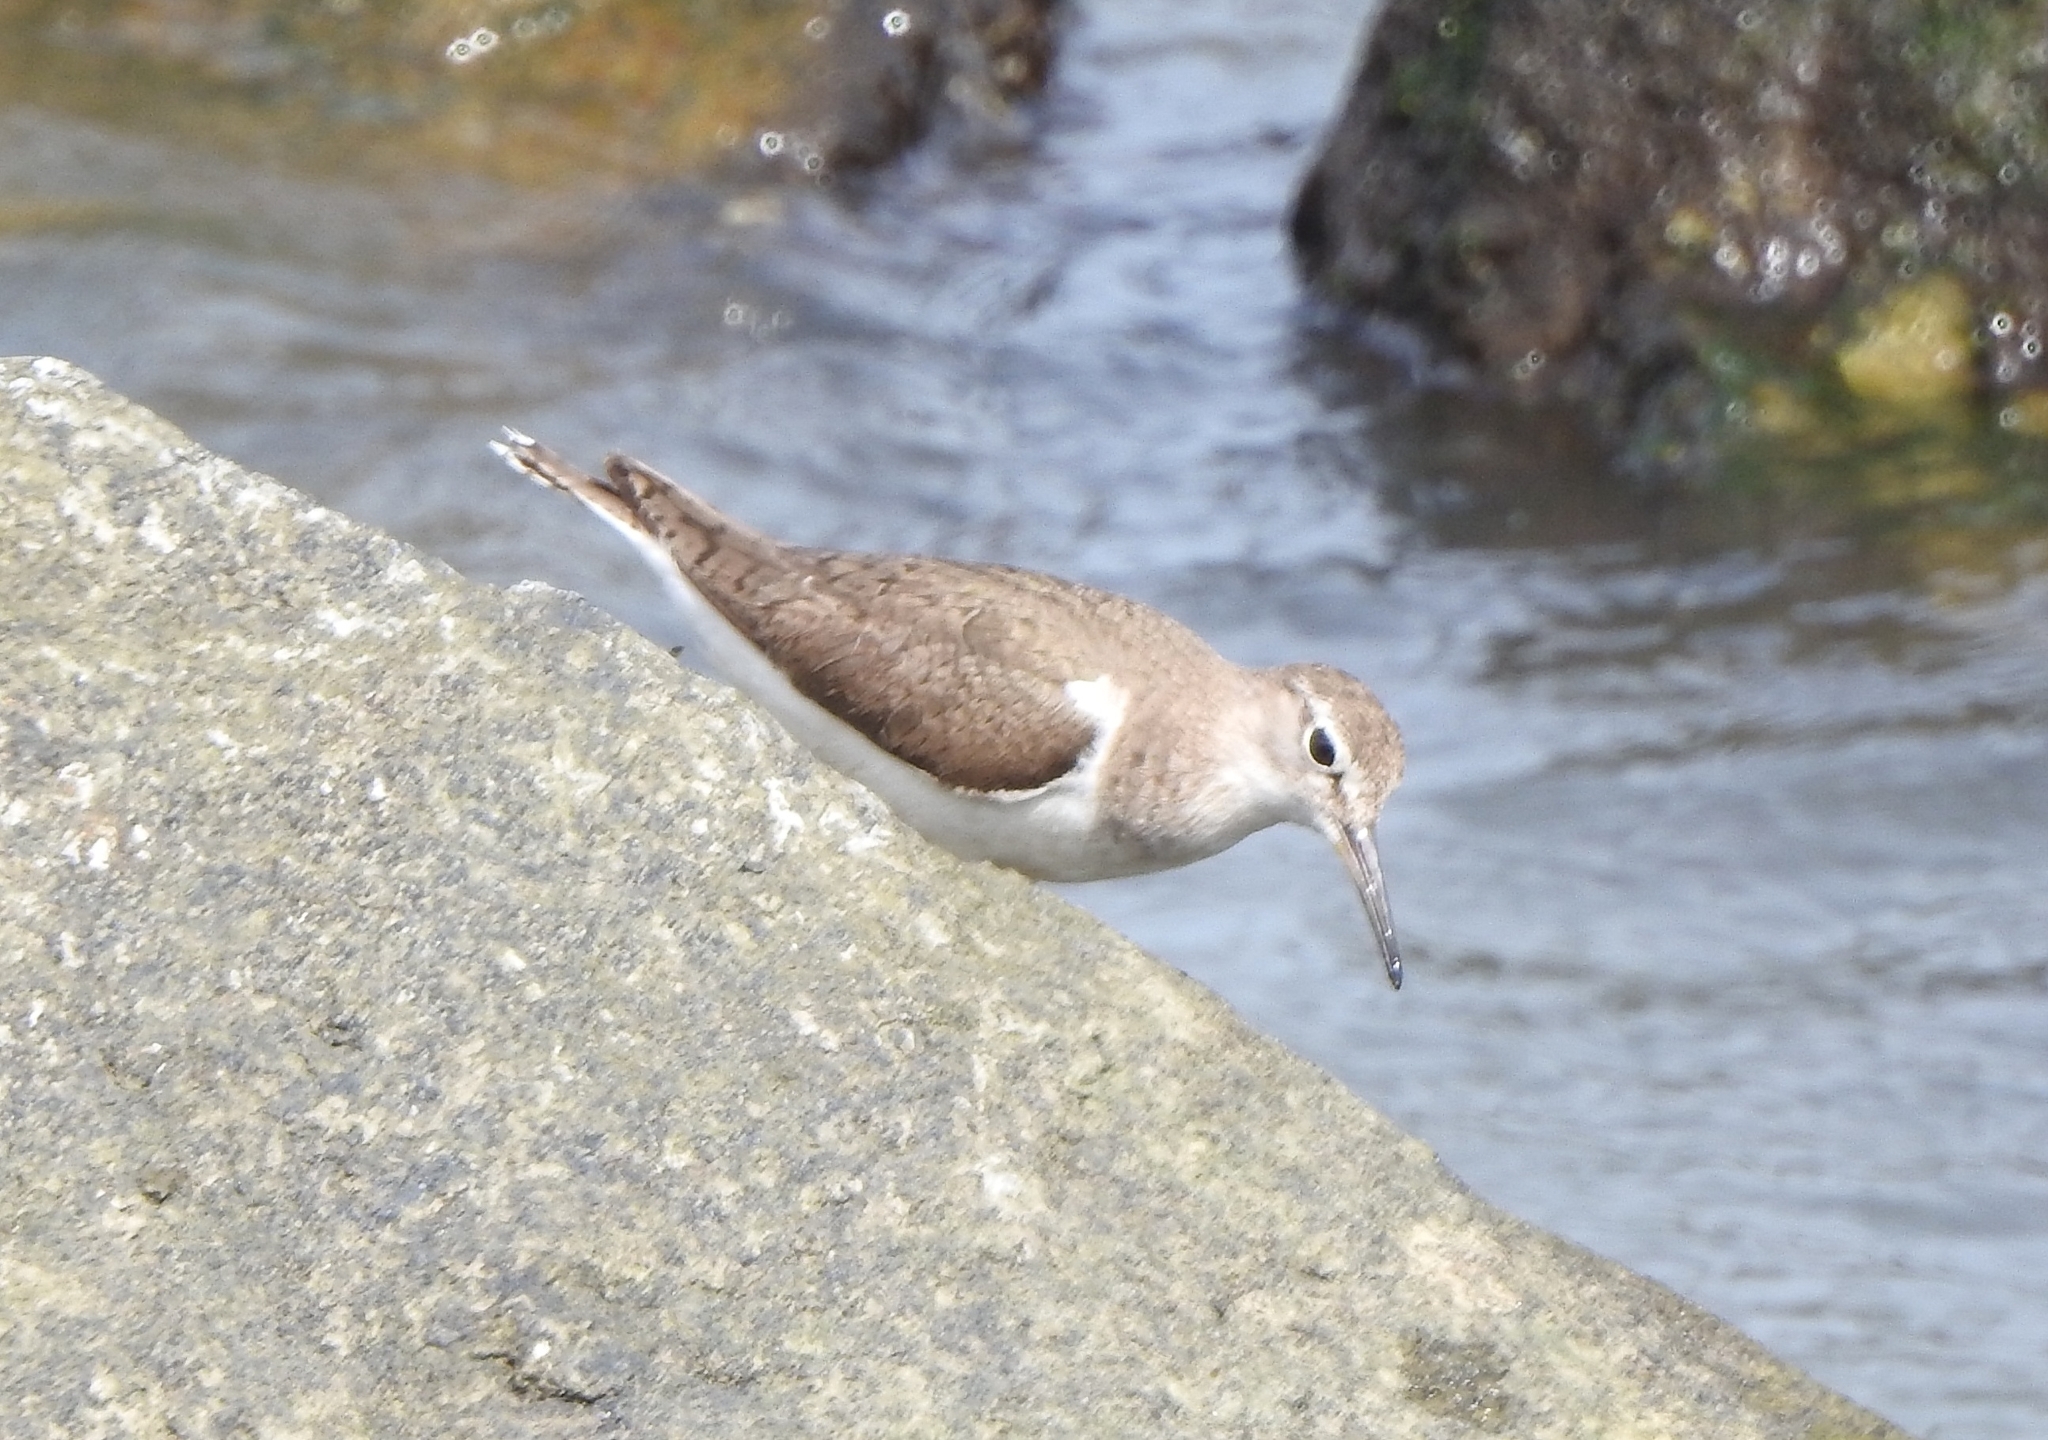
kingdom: Animalia
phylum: Chordata
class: Aves
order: Charadriiformes
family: Scolopacidae
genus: Actitis
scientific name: Actitis hypoleucos
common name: Common sandpiper
